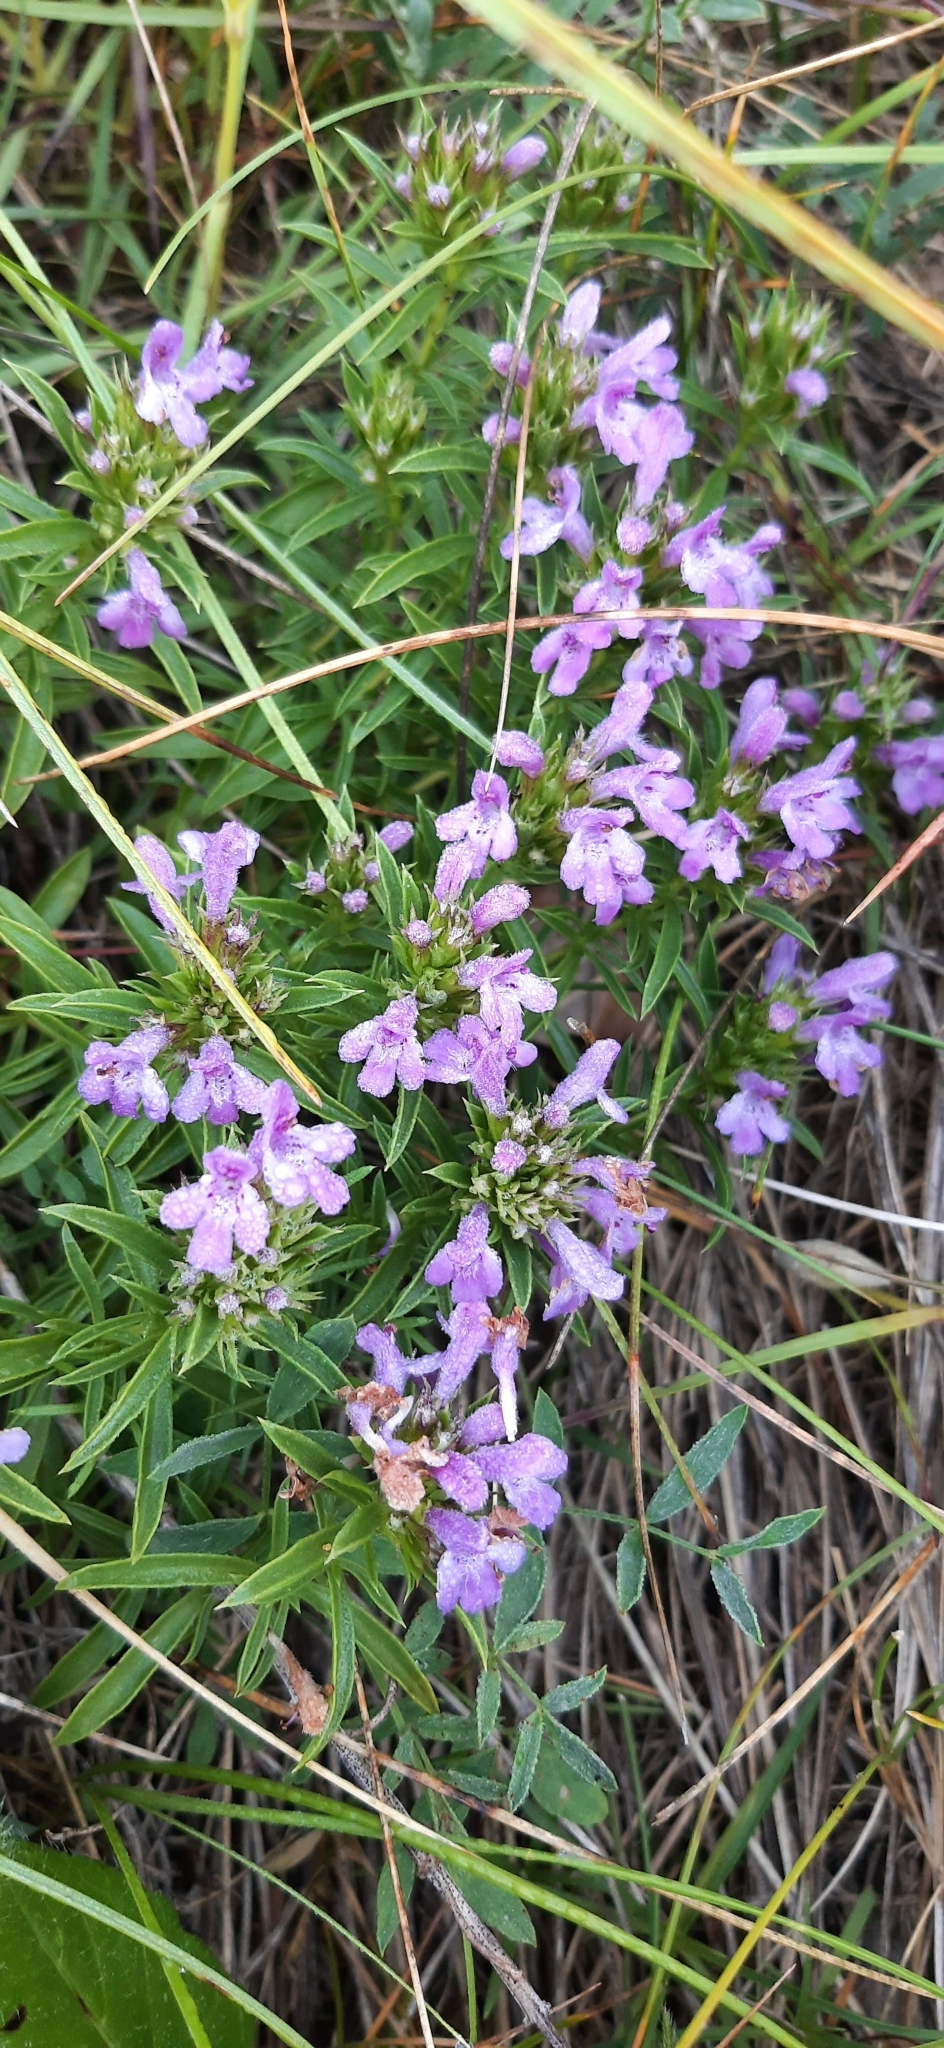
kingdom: Plantae
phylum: Tracheophyta
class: Magnoliopsida
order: Lamiales
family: Lamiaceae
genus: Satureja
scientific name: Satureja subspicata
